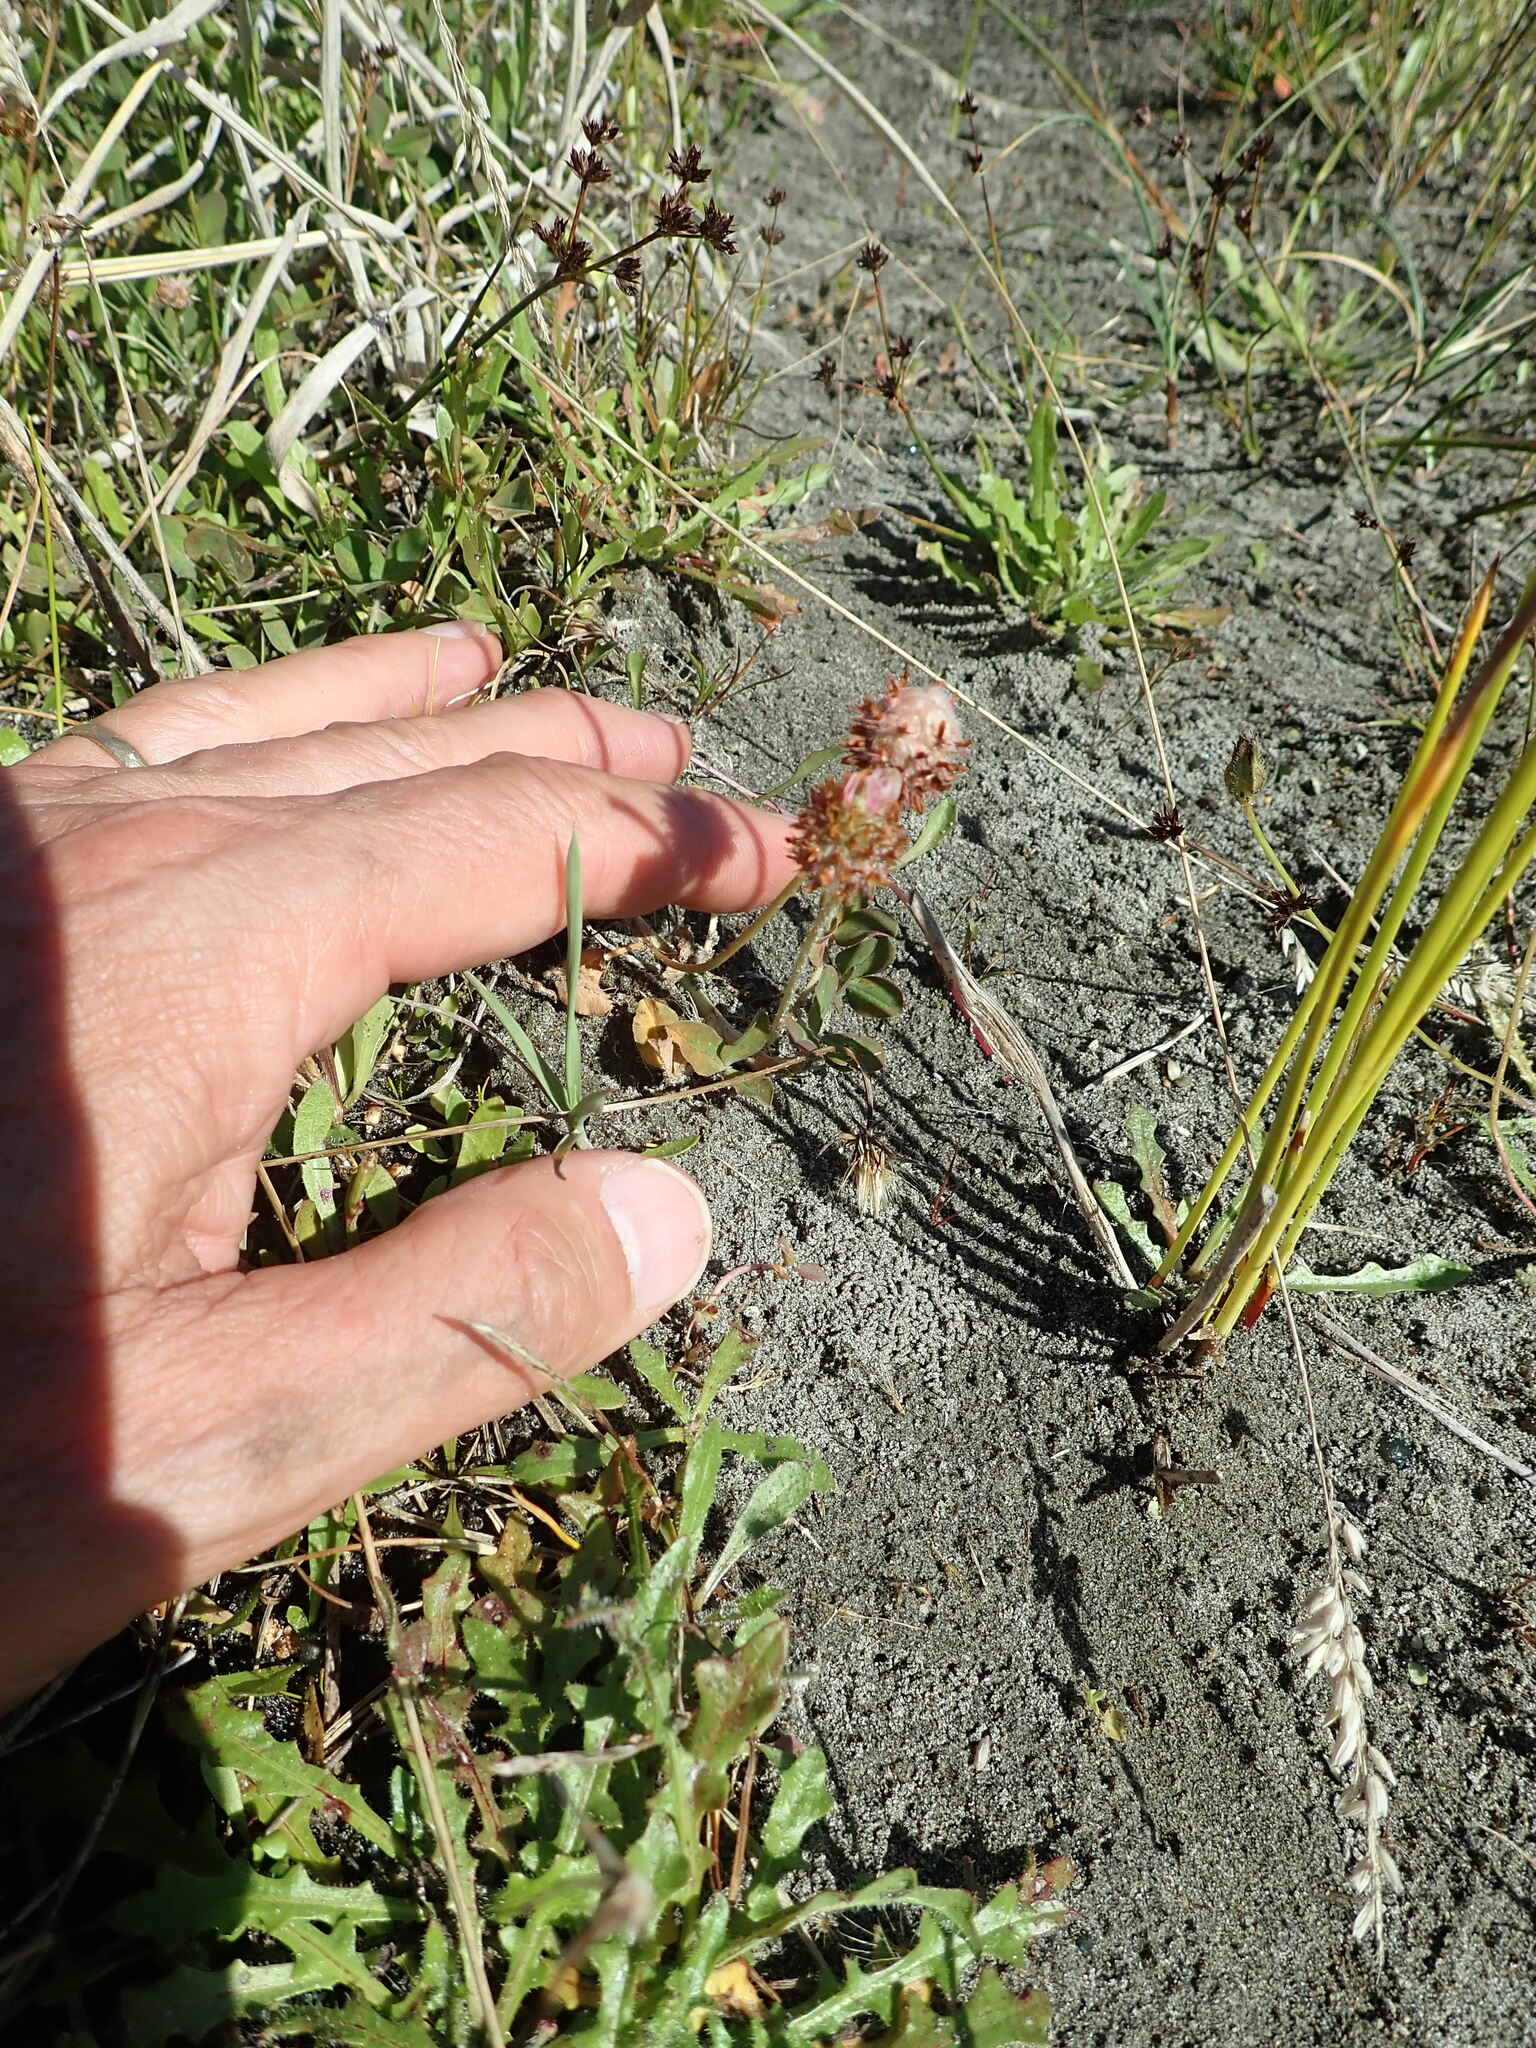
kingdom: Plantae
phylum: Tracheophyta
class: Magnoliopsida
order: Fabales
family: Fabaceae
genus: Trifolium
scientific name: Trifolium fragiferum
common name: Strawberry clover
